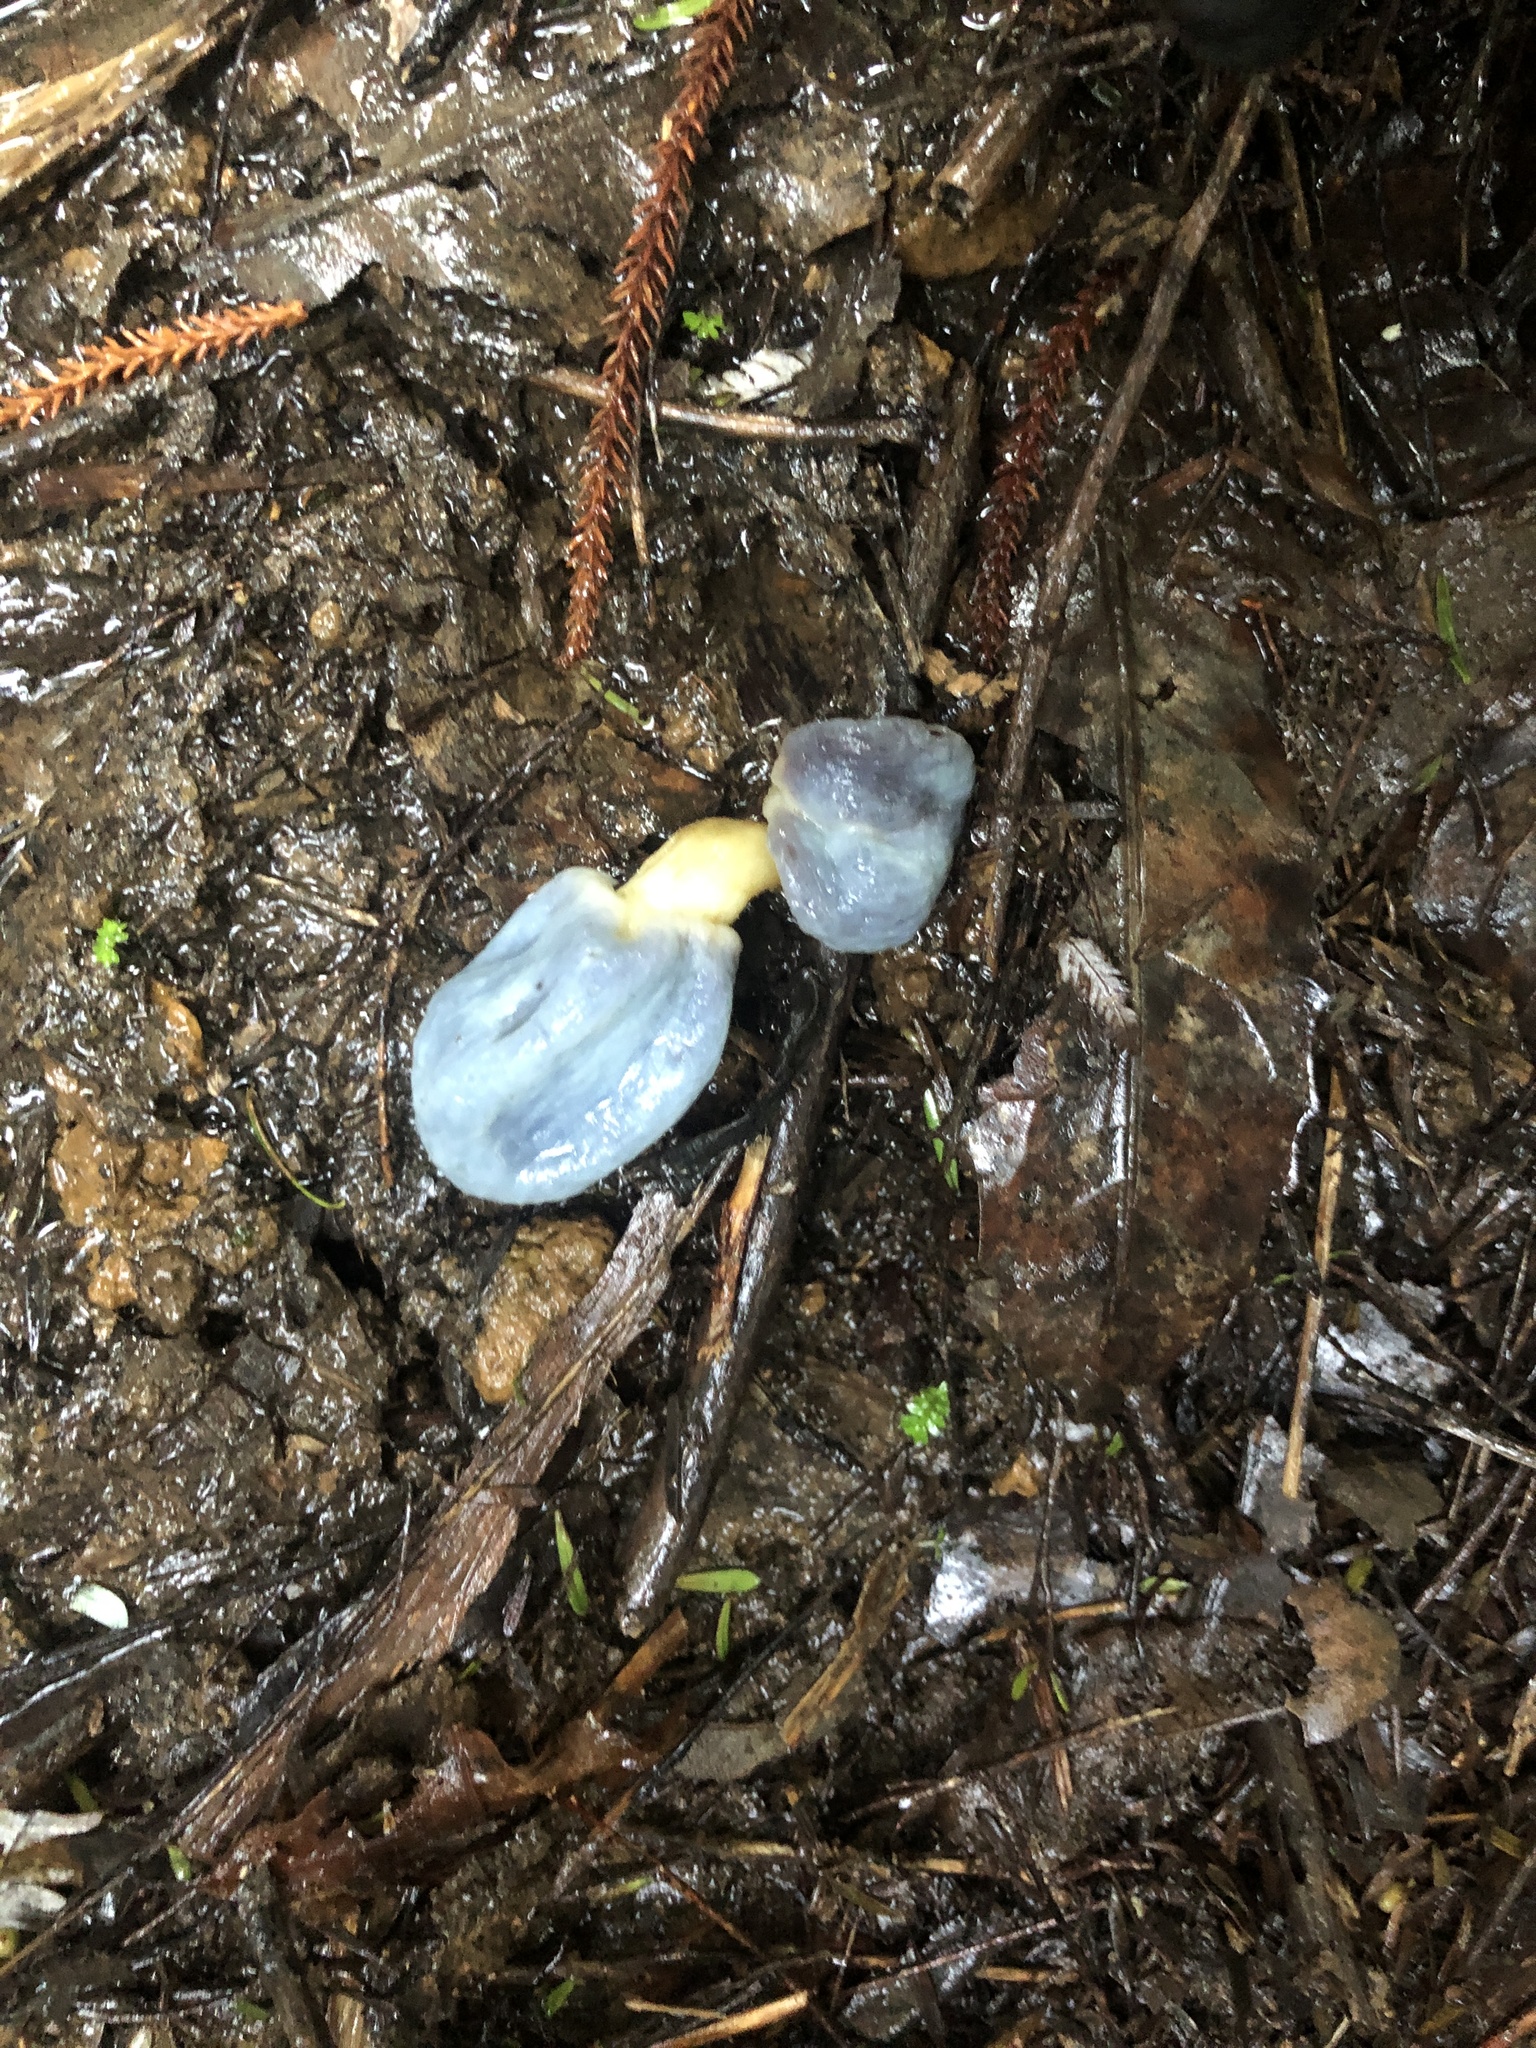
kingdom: Fungi
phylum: Basidiomycota
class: Agaricomycetes
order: Agaricales
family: Agaricaceae
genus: Clavogaster
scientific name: Clavogaster virescens
